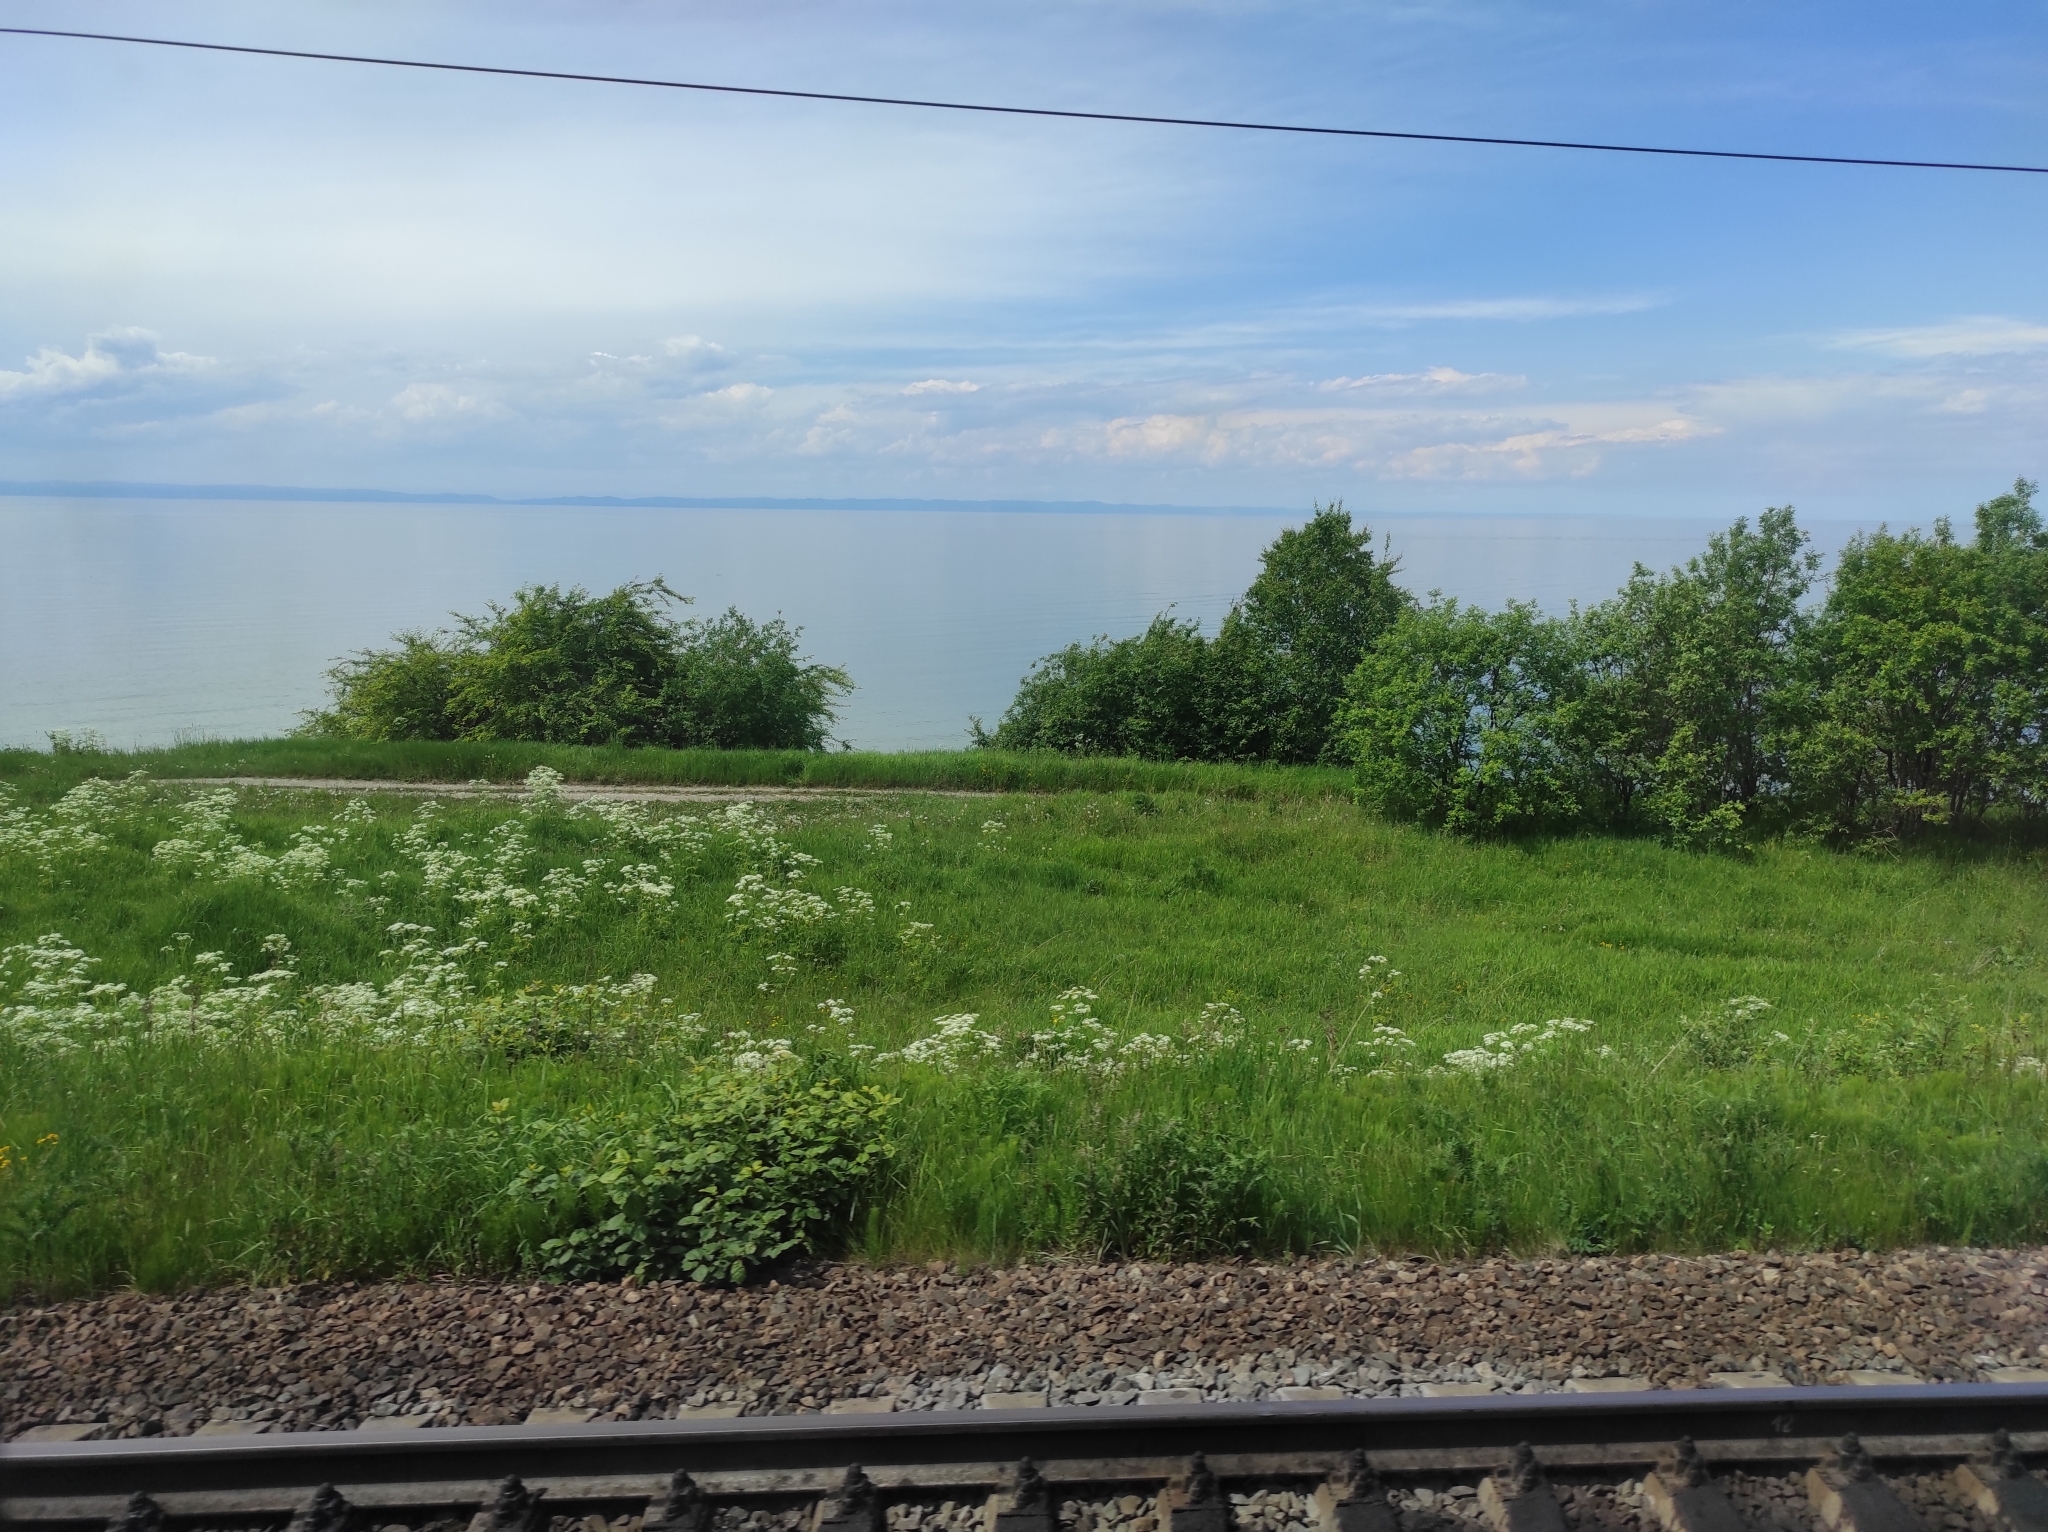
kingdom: Plantae
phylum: Tracheophyta
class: Magnoliopsida
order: Apiales
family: Apiaceae
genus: Anthriscus
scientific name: Anthriscus sylvestris
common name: Cow parsley
